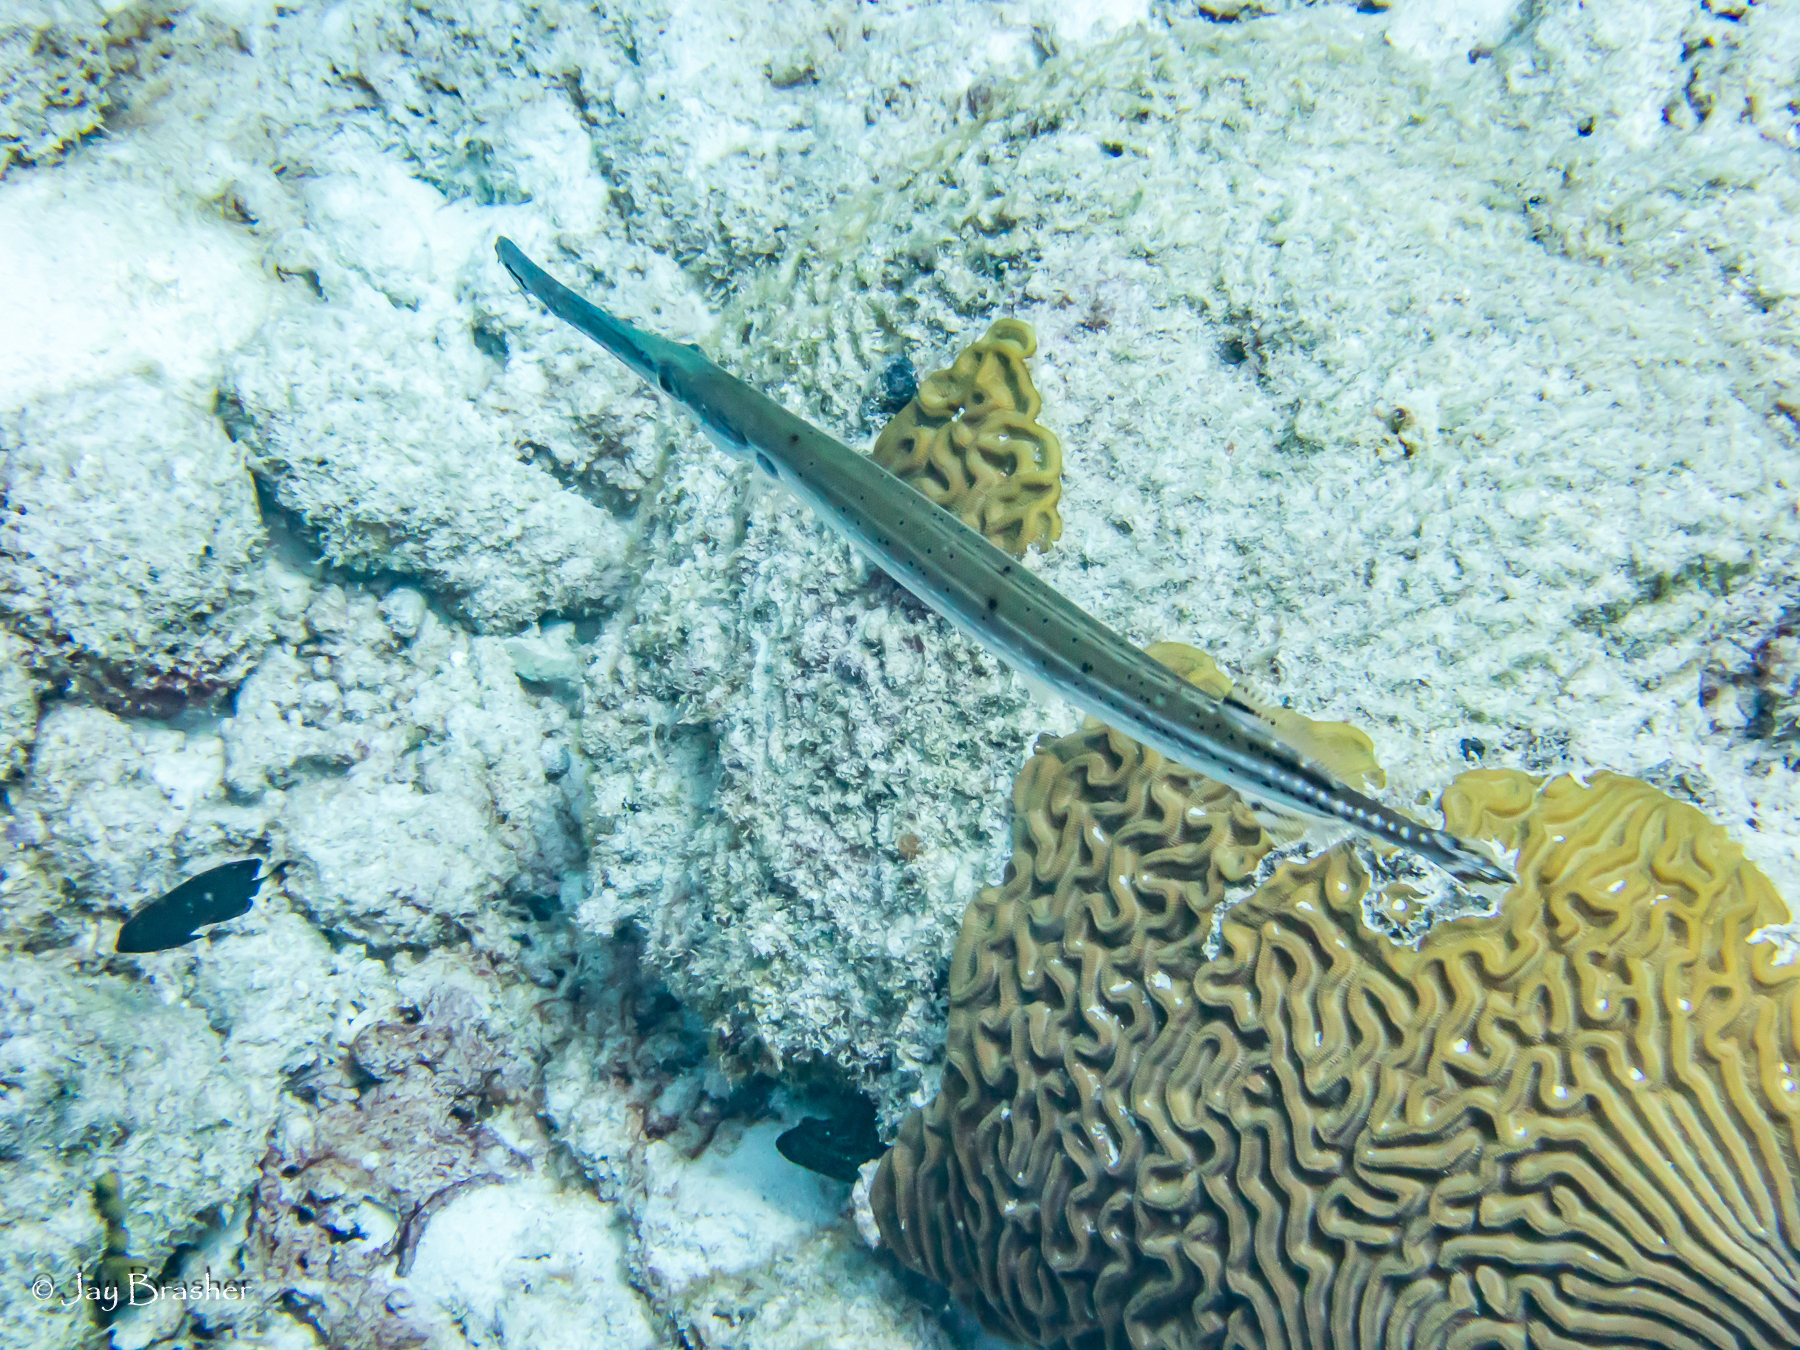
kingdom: Animalia
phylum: Chordata
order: Syngnathiformes
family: Aulostomidae
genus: Aulostomus
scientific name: Aulostomus maculatus
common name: West atlantic trumpetfish
